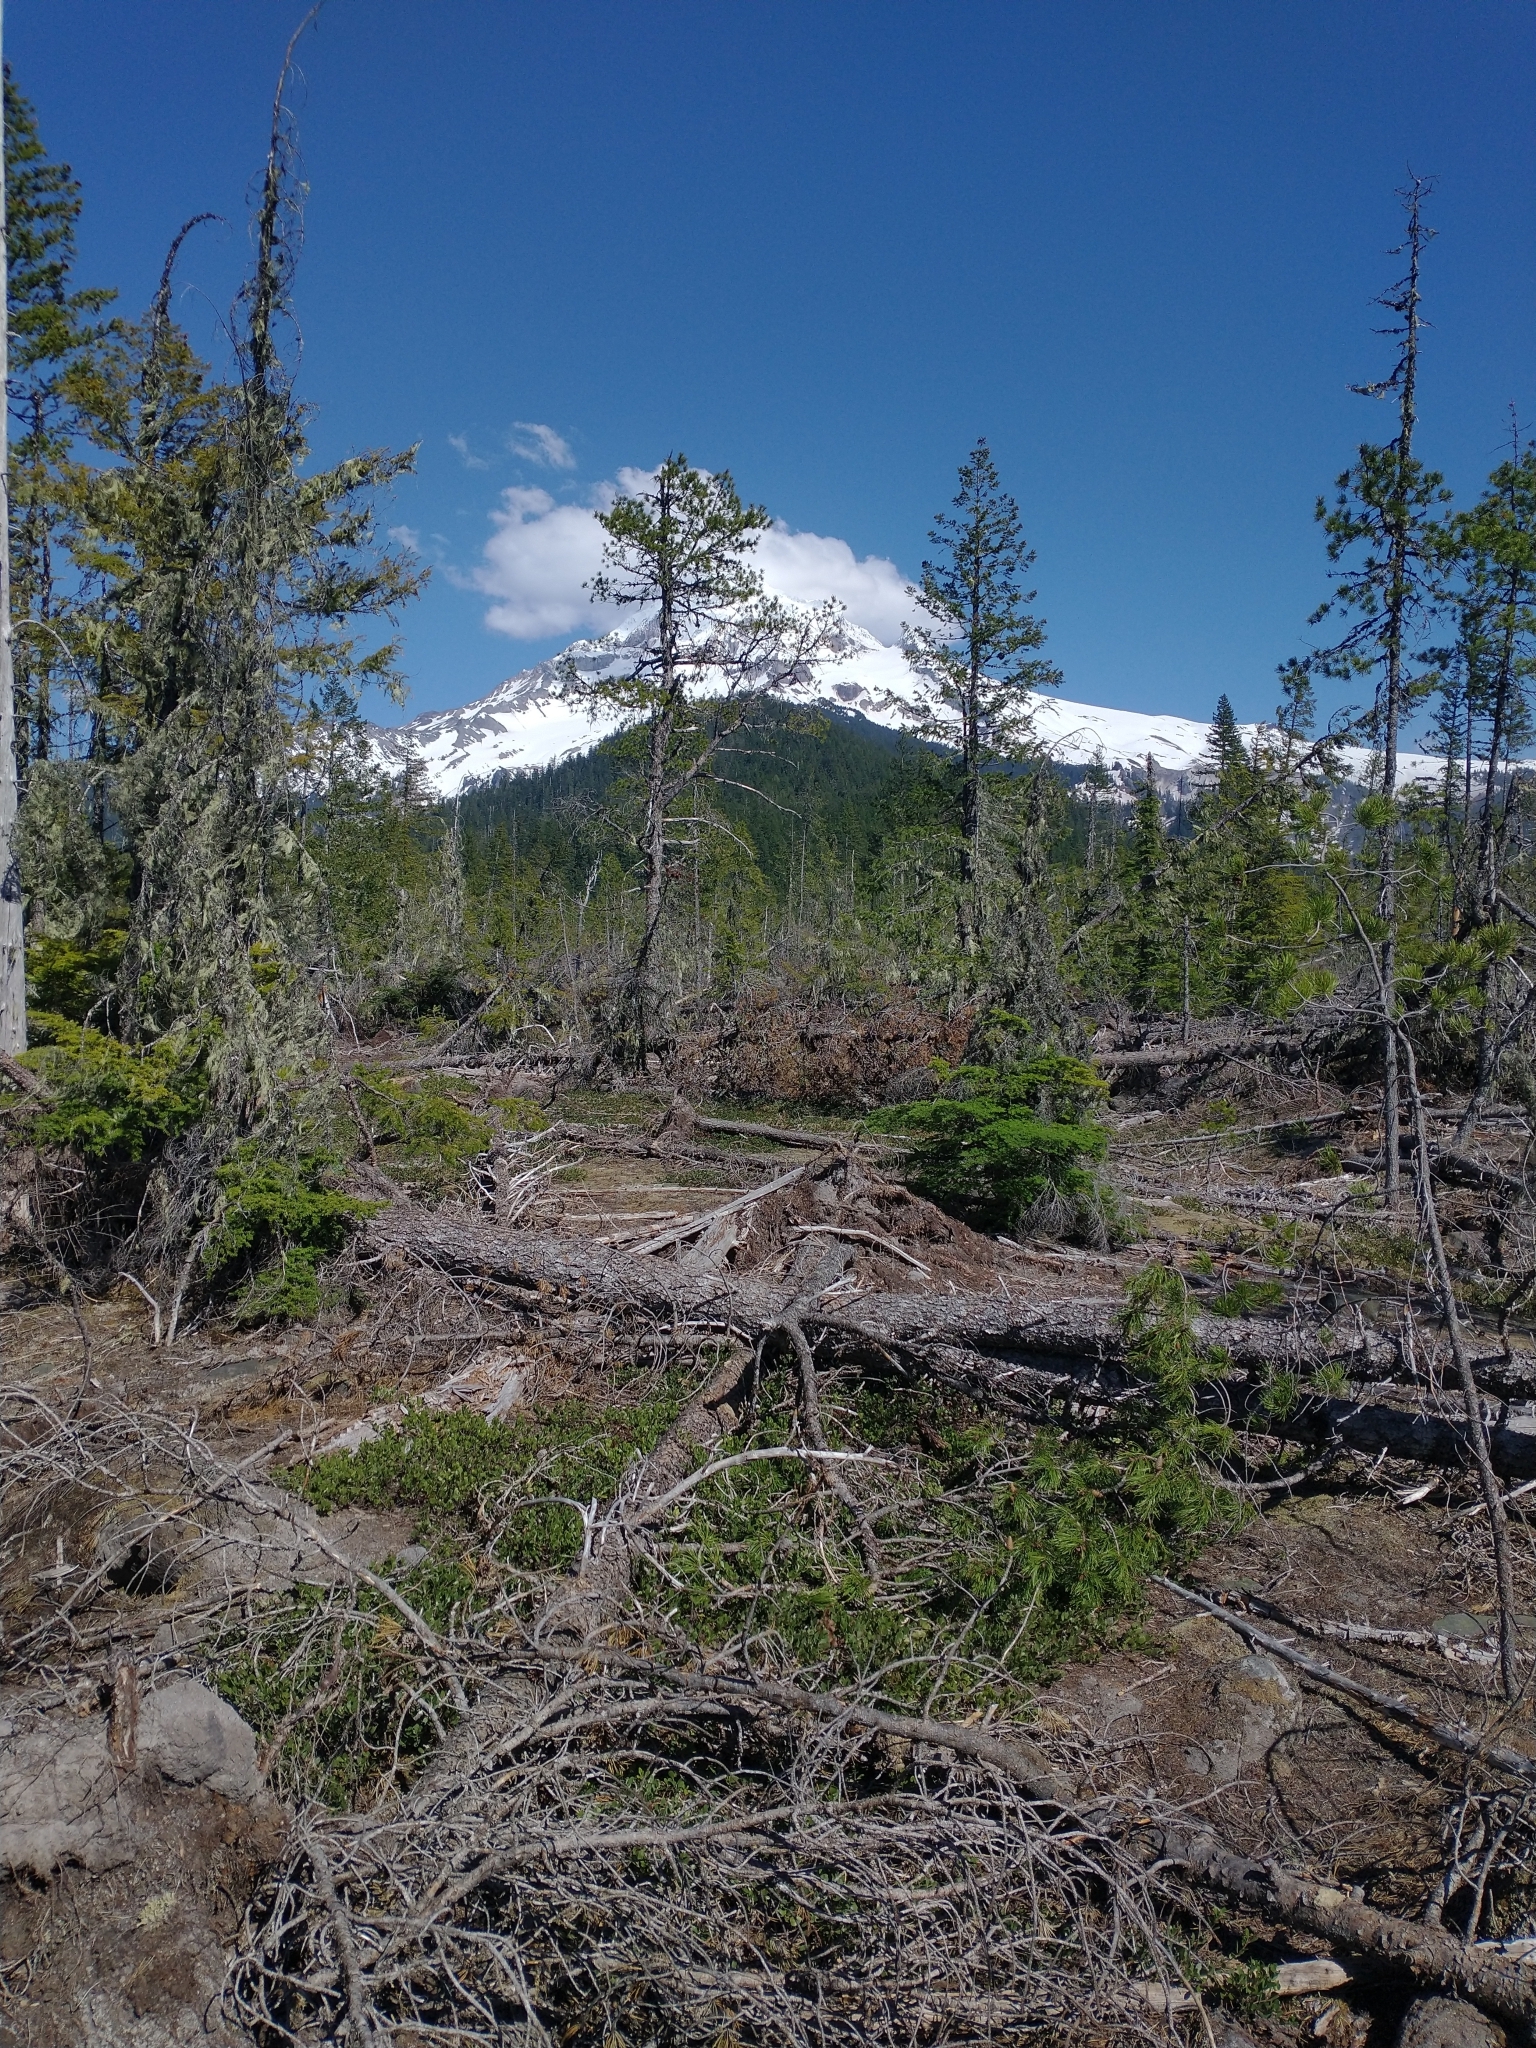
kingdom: Plantae
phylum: Tracheophyta
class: Pinopsida
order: Pinales
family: Pinaceae
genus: Pseudotsuga
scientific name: Pseudotsuga menziesii
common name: Douglas fir
